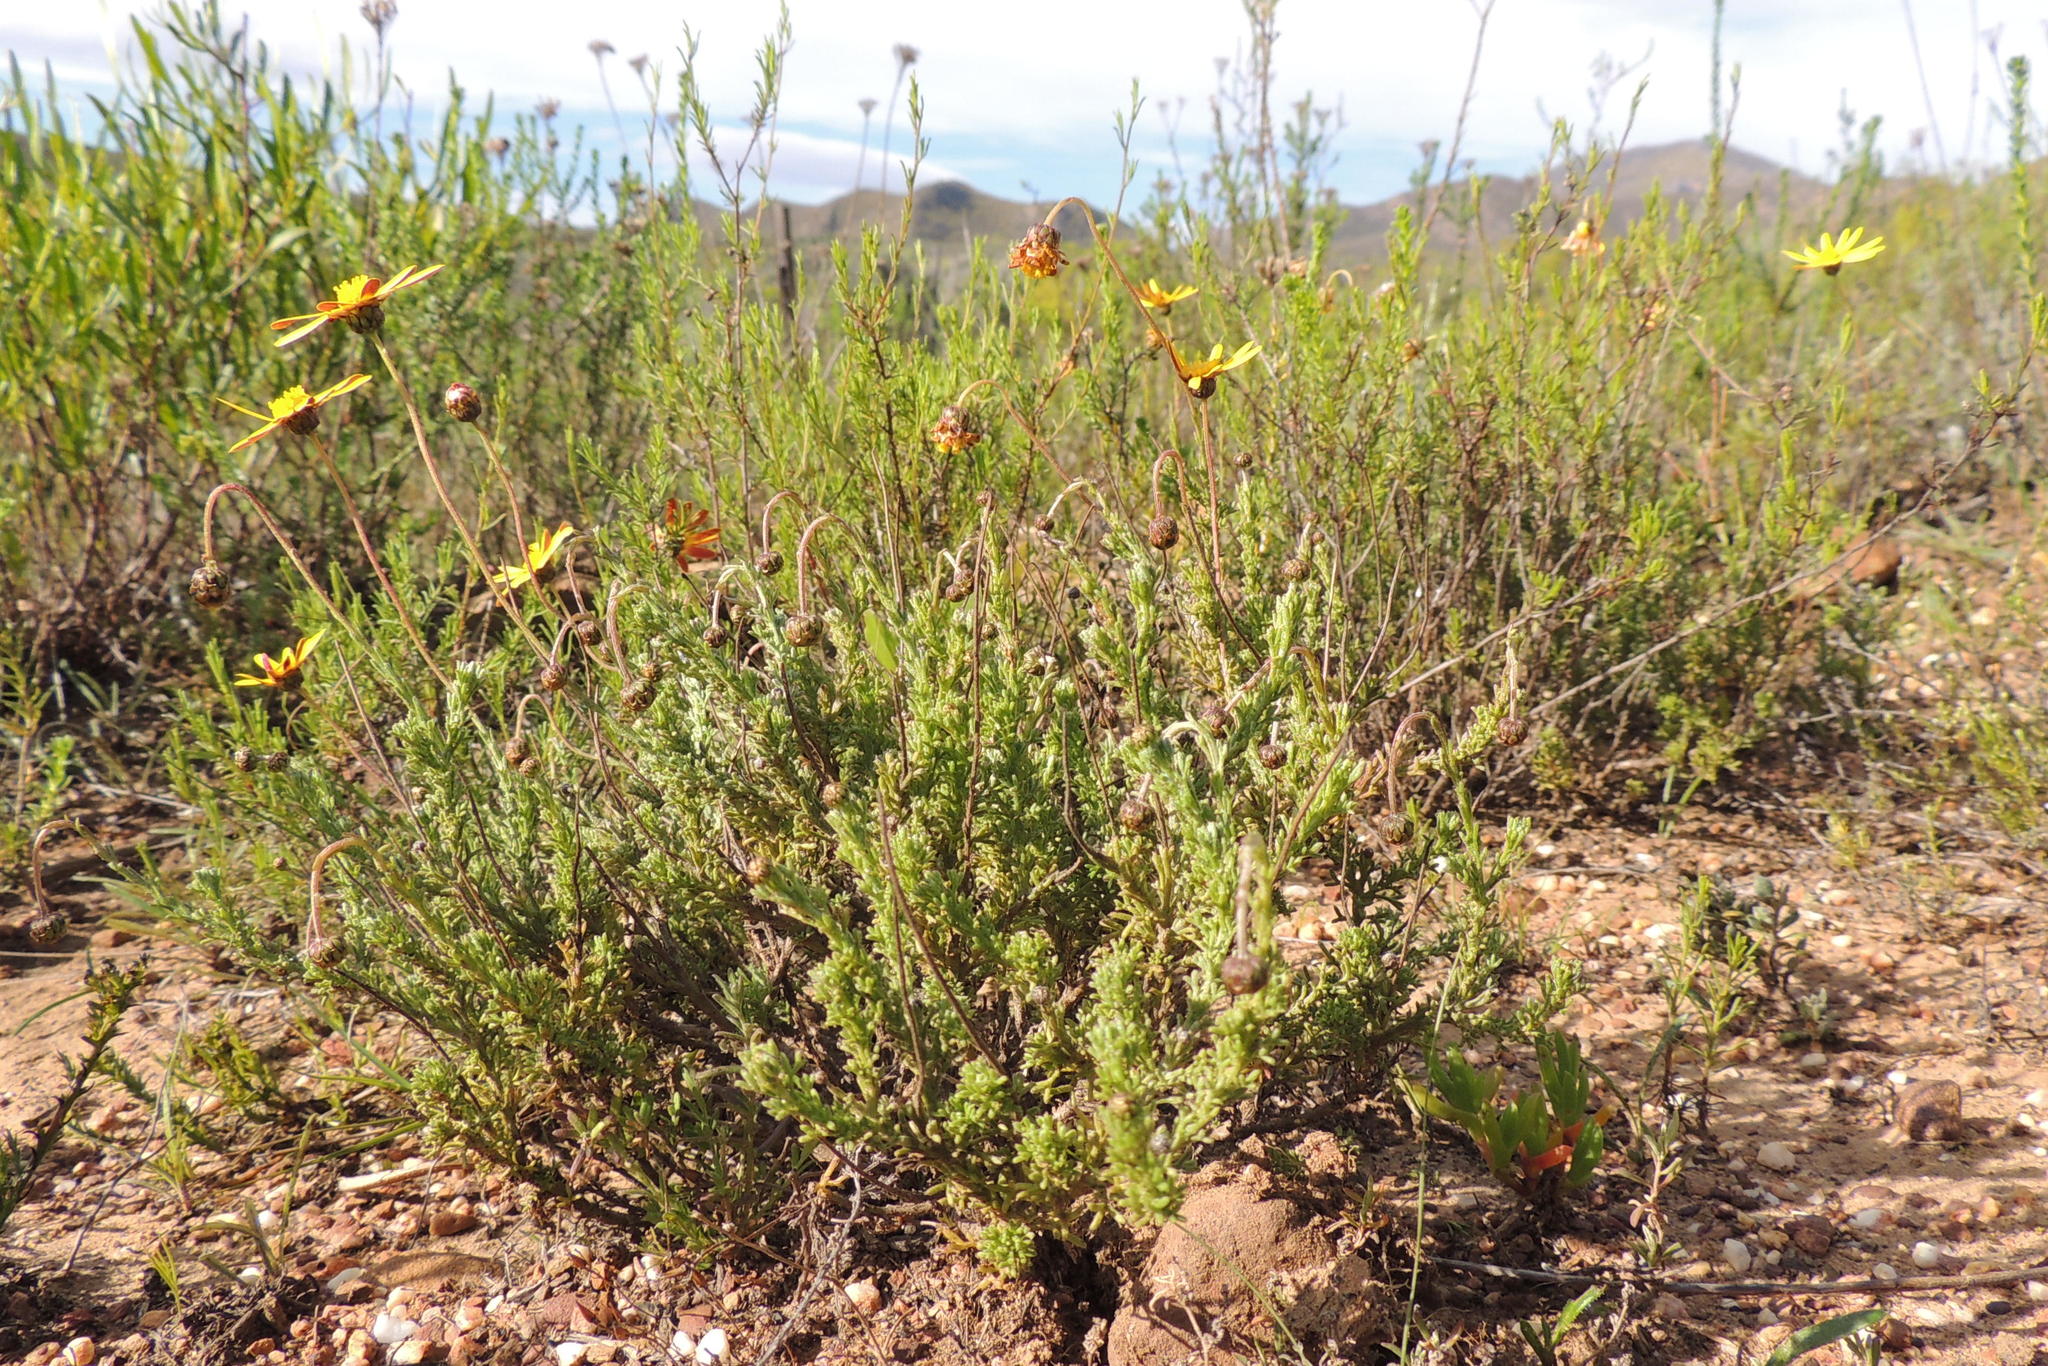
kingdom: Plantae
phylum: Tracheophyta
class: Magnoliopsida
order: Asterales
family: Asteraceae
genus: Ursinia
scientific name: Ursinia discolor
